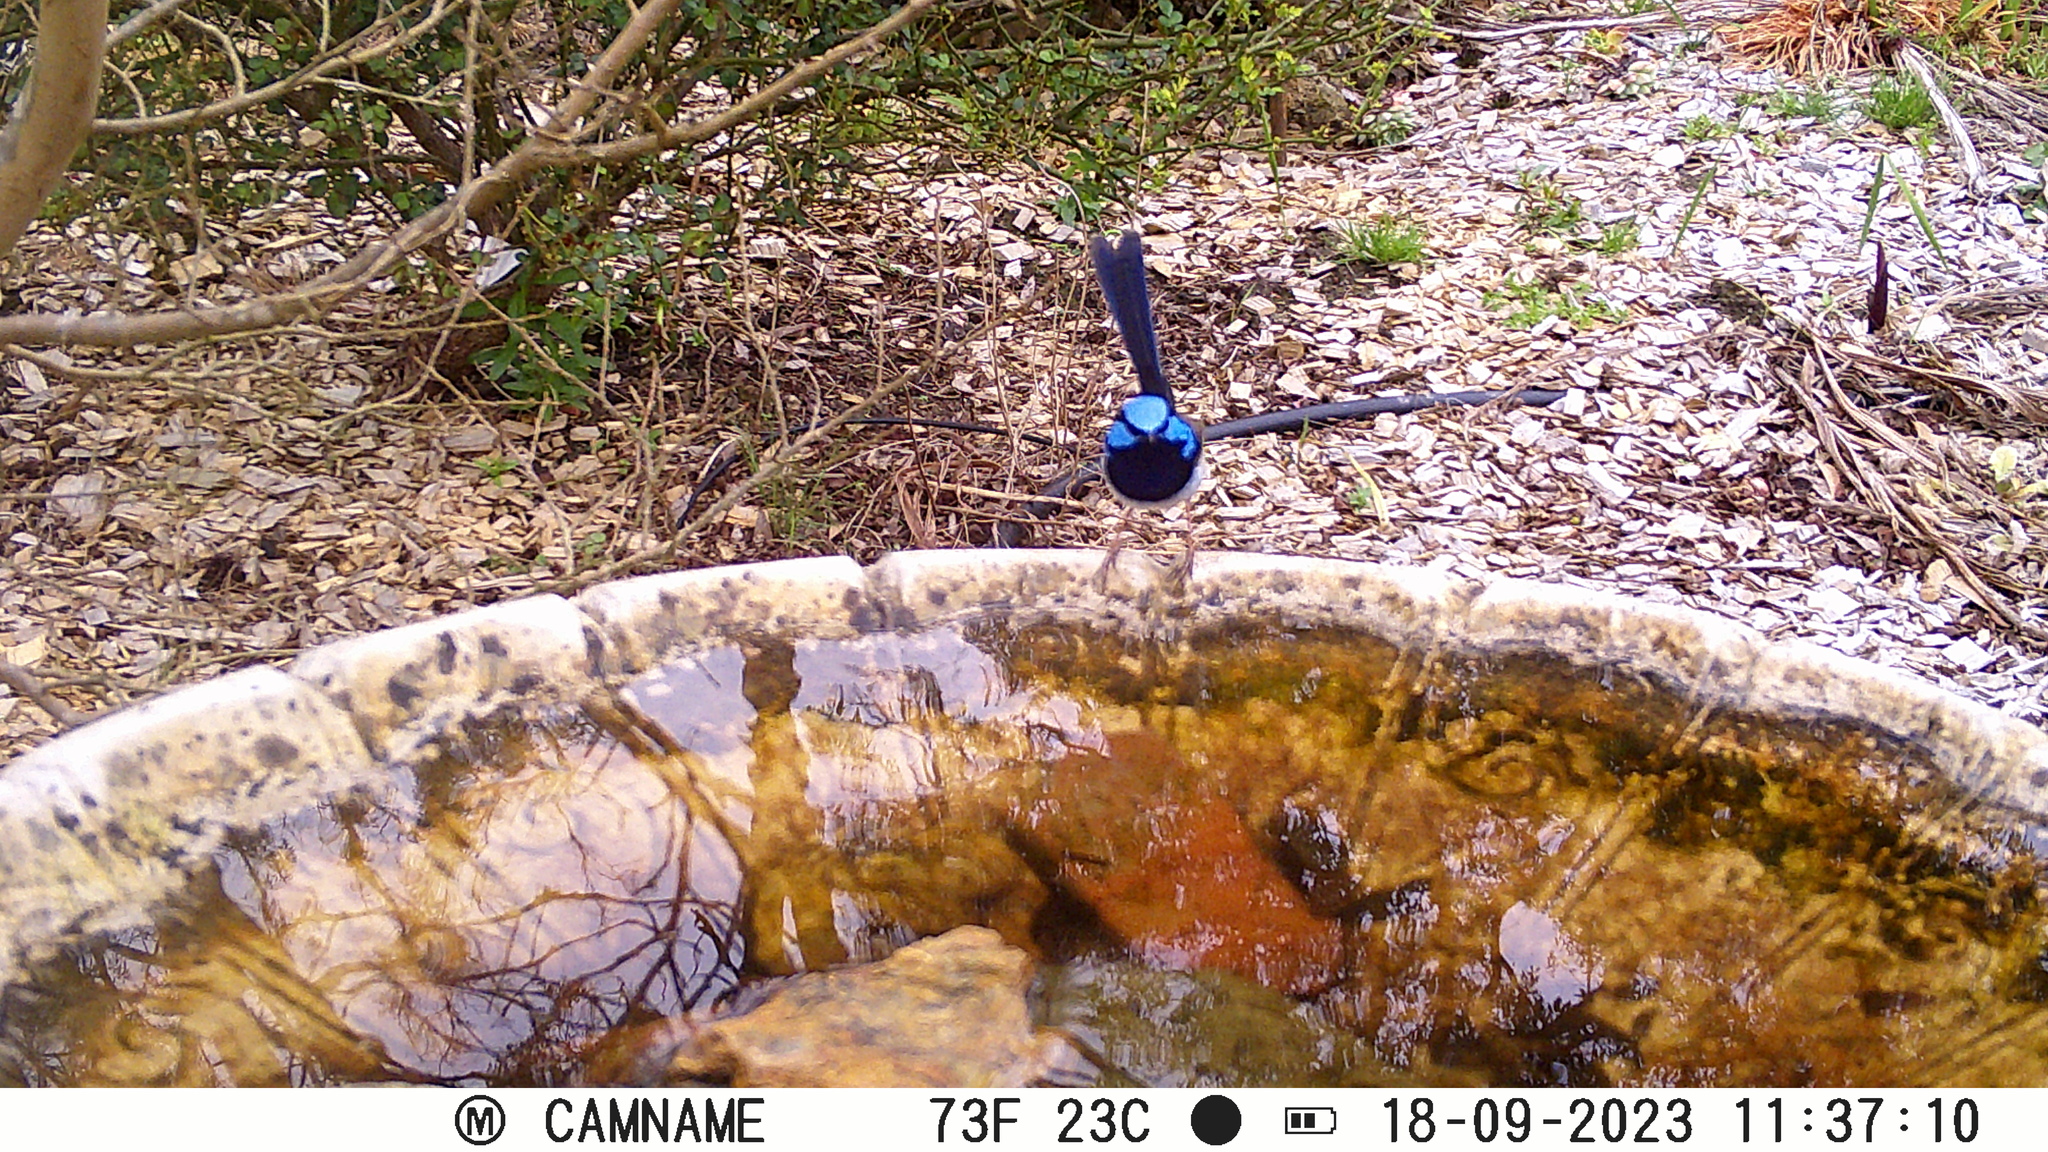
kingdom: Animalia
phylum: Chordata
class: Aves
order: Passeriformes
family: Maluridae
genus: Malurus
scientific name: Malurus cyaneus
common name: Superb fairywren
